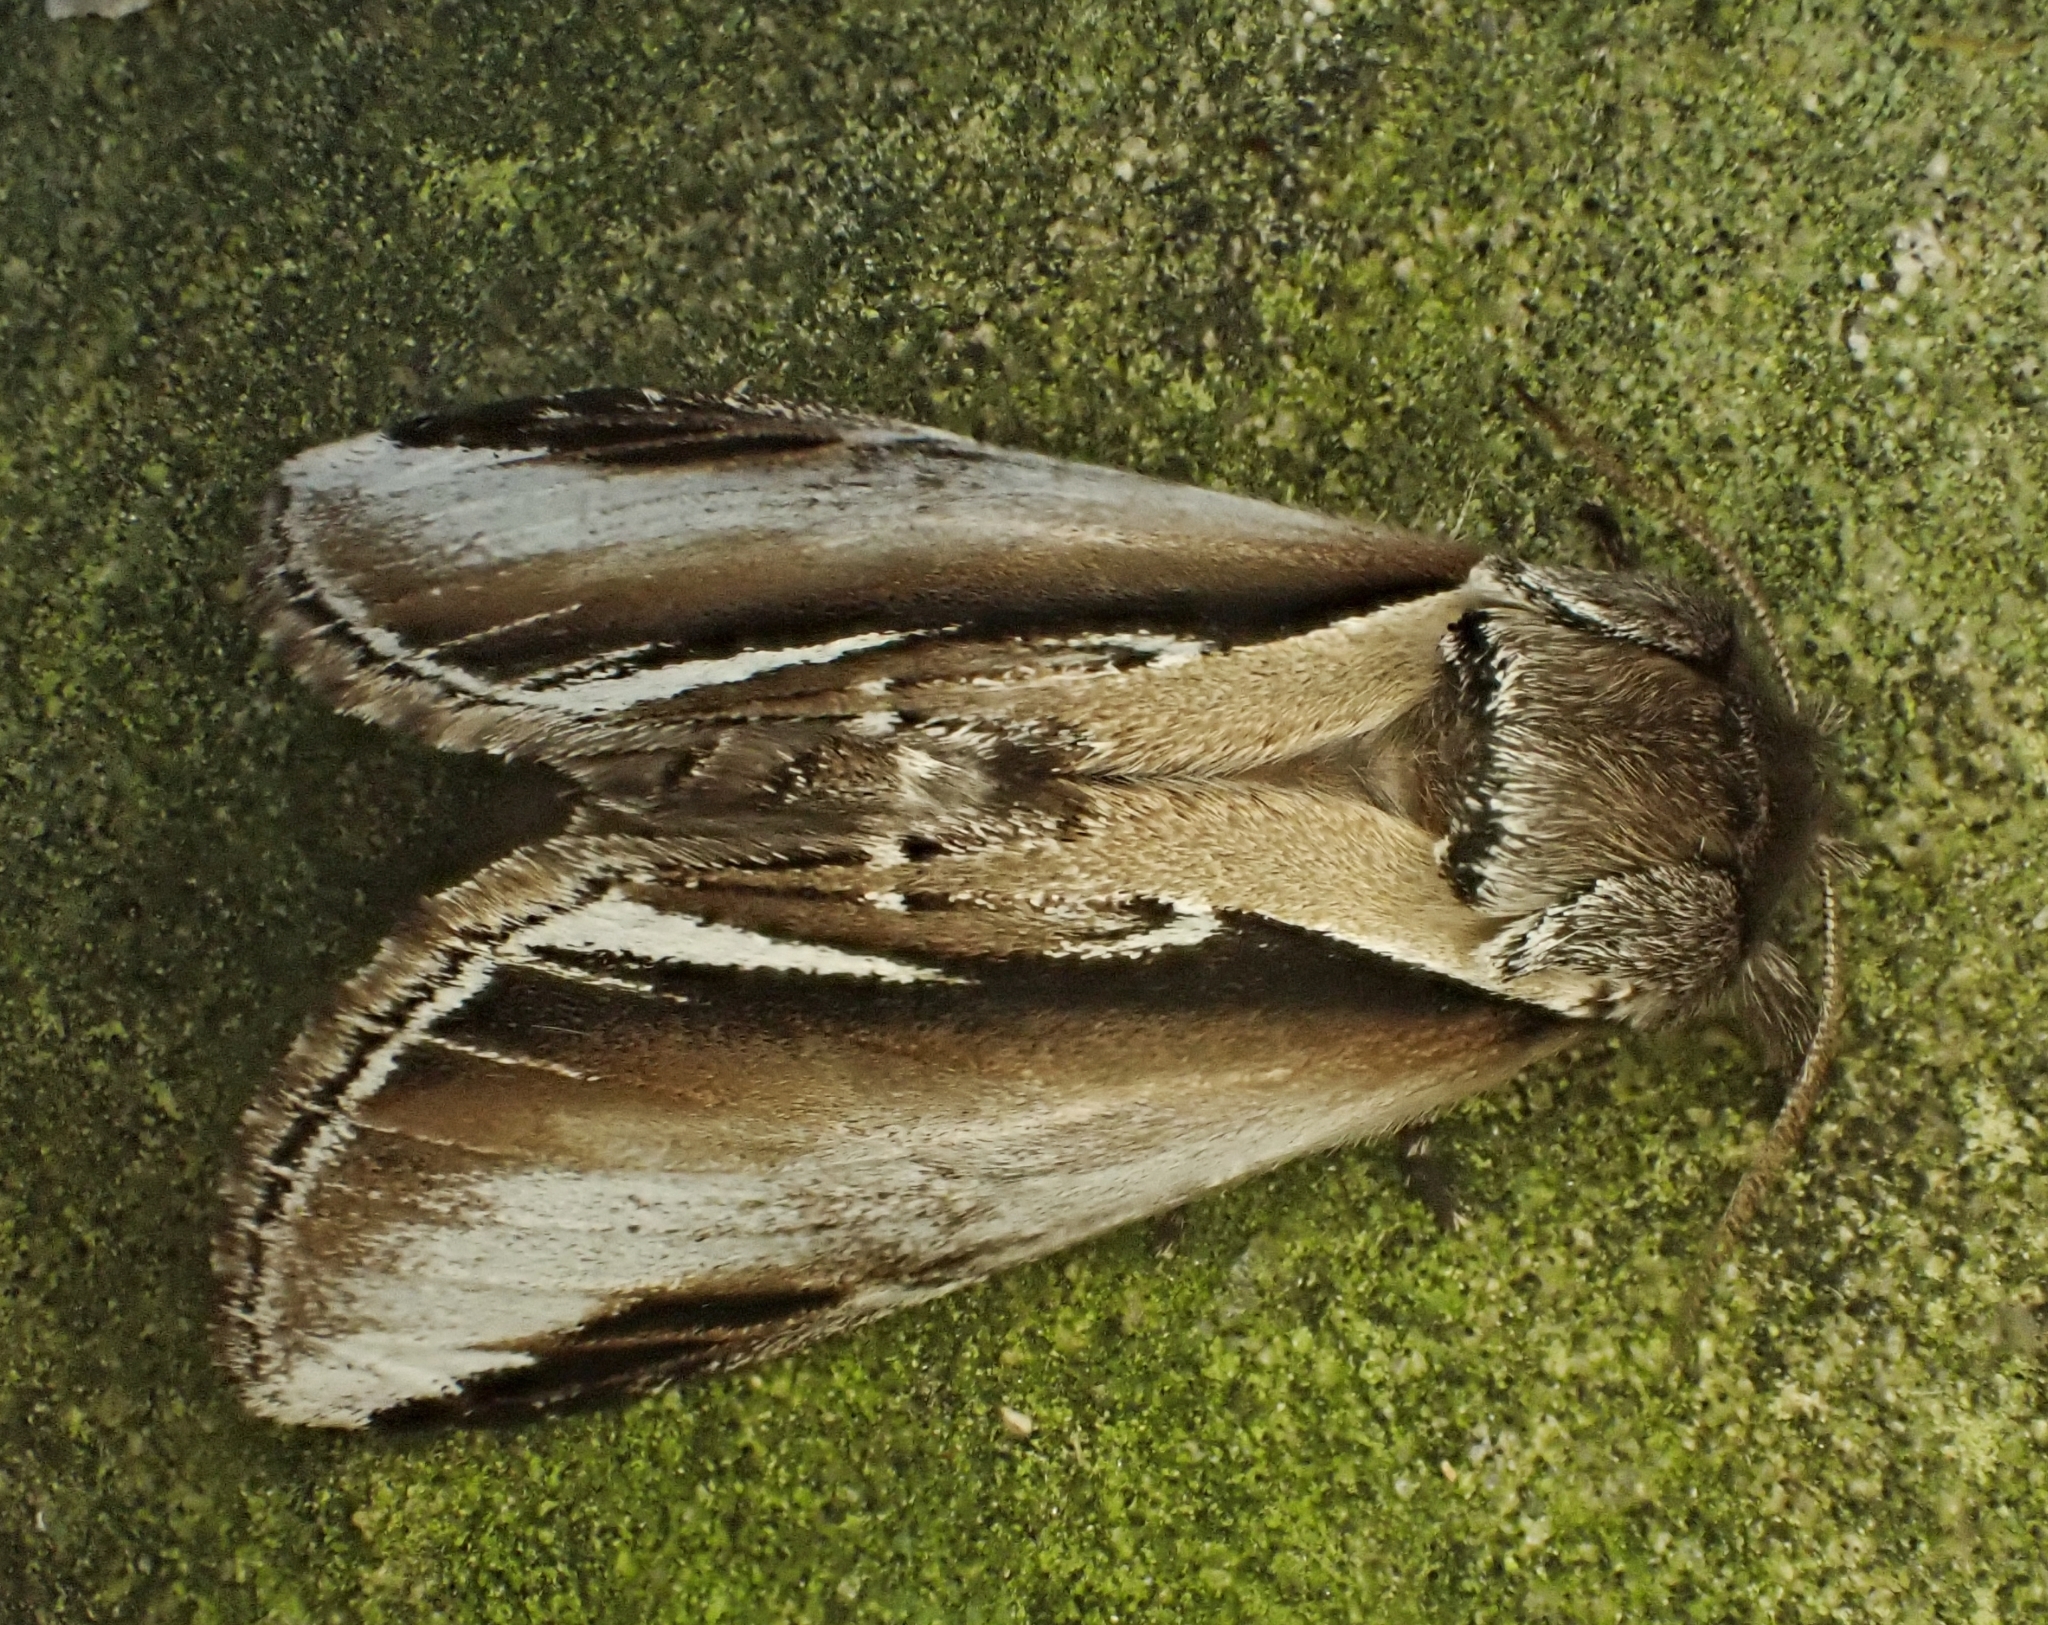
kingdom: Animalia
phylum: Arthropoda
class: Insecta
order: Lepidoptera
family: Notodontidae
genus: Pheosia
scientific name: Pheosia gnoma
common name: Lesser swallow prominent
